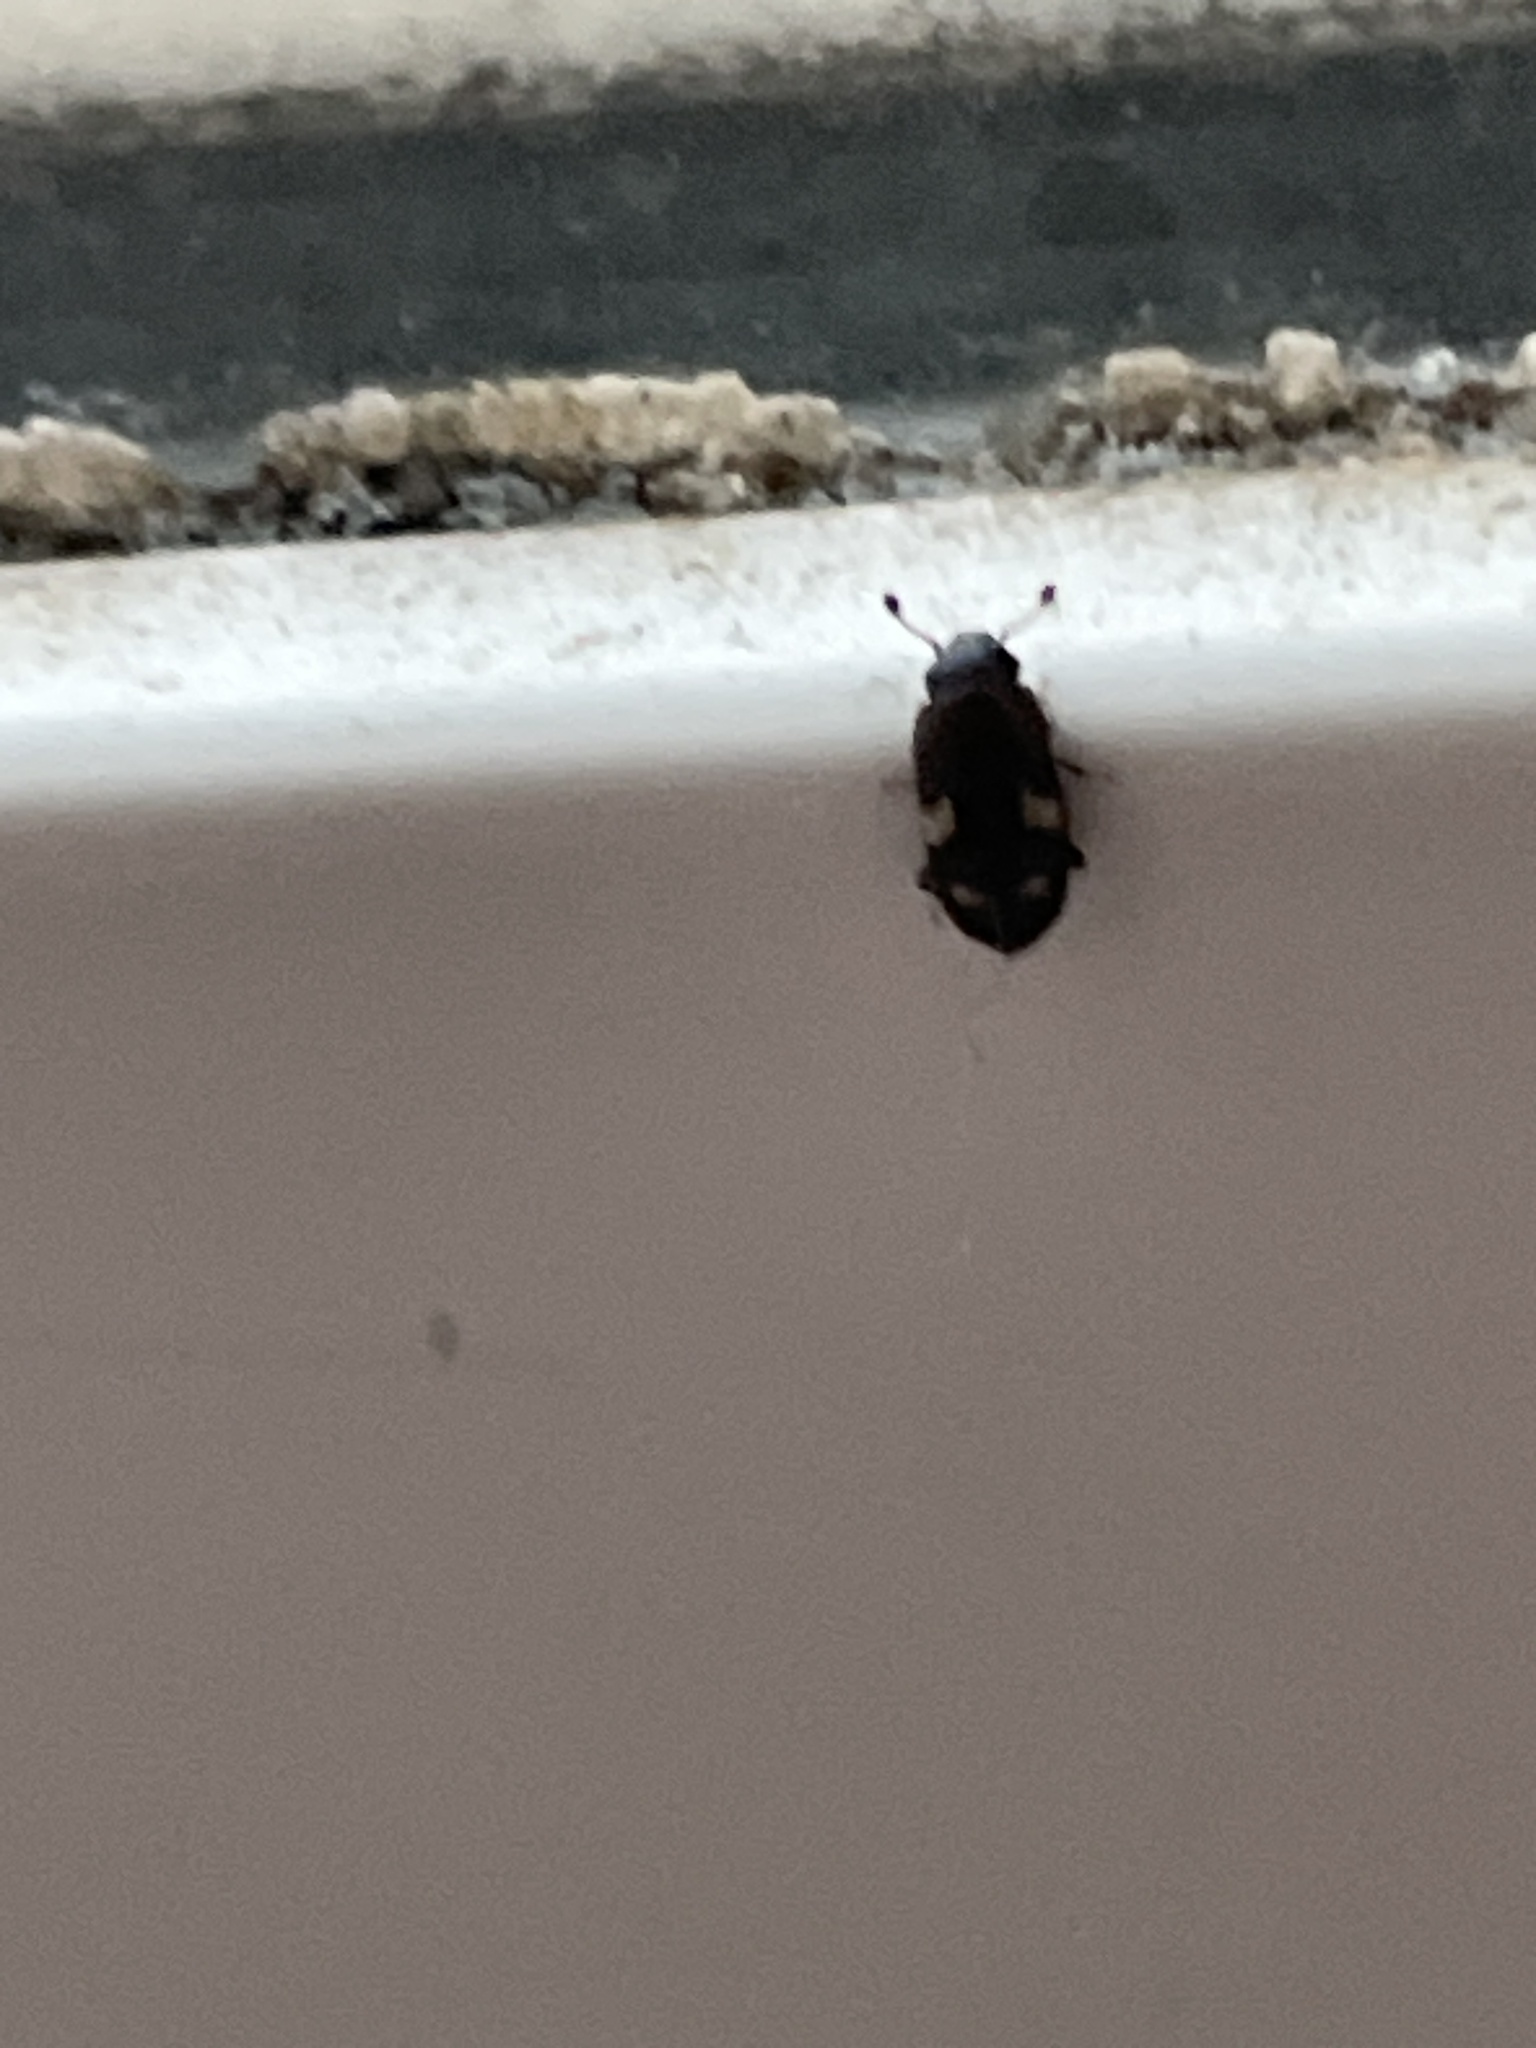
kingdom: Animalia
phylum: Arthropoda
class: Insecta
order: Coleoptera
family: Nitidulidae
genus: Glischrochilus
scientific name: Glischrochilus quadrisignatus
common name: Picnic beetle
